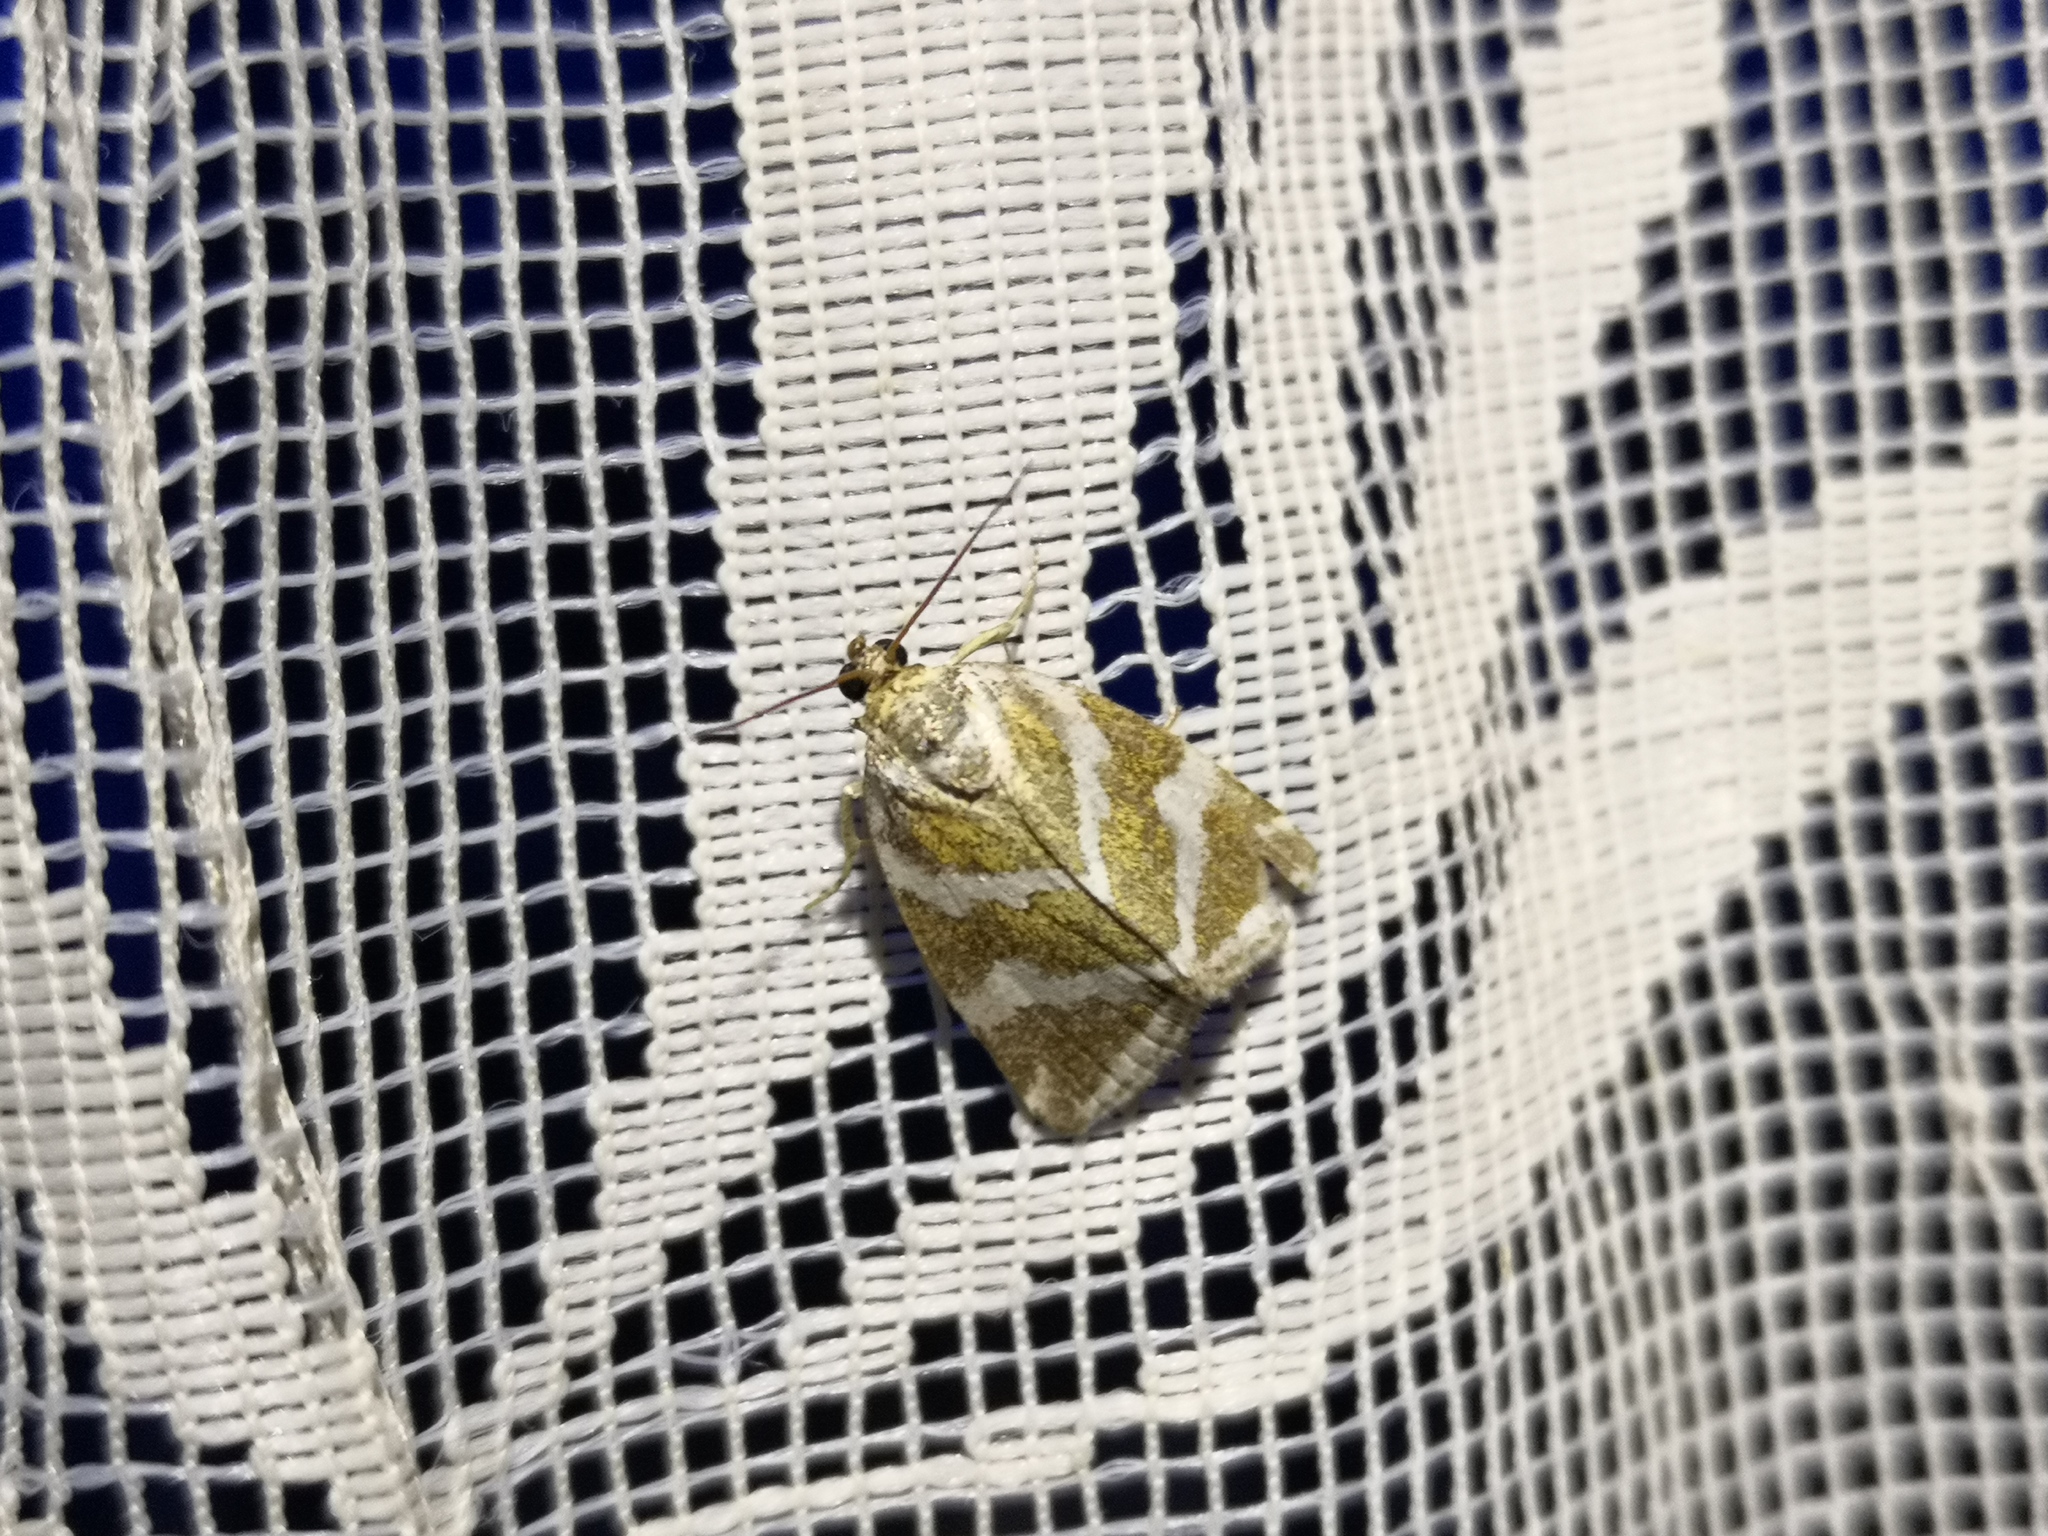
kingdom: Animalia
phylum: Arthropoda
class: Insecta
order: Lepidoptera
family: Noctuidae
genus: Deltote
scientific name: Deltote bankiana
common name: Silver barred
